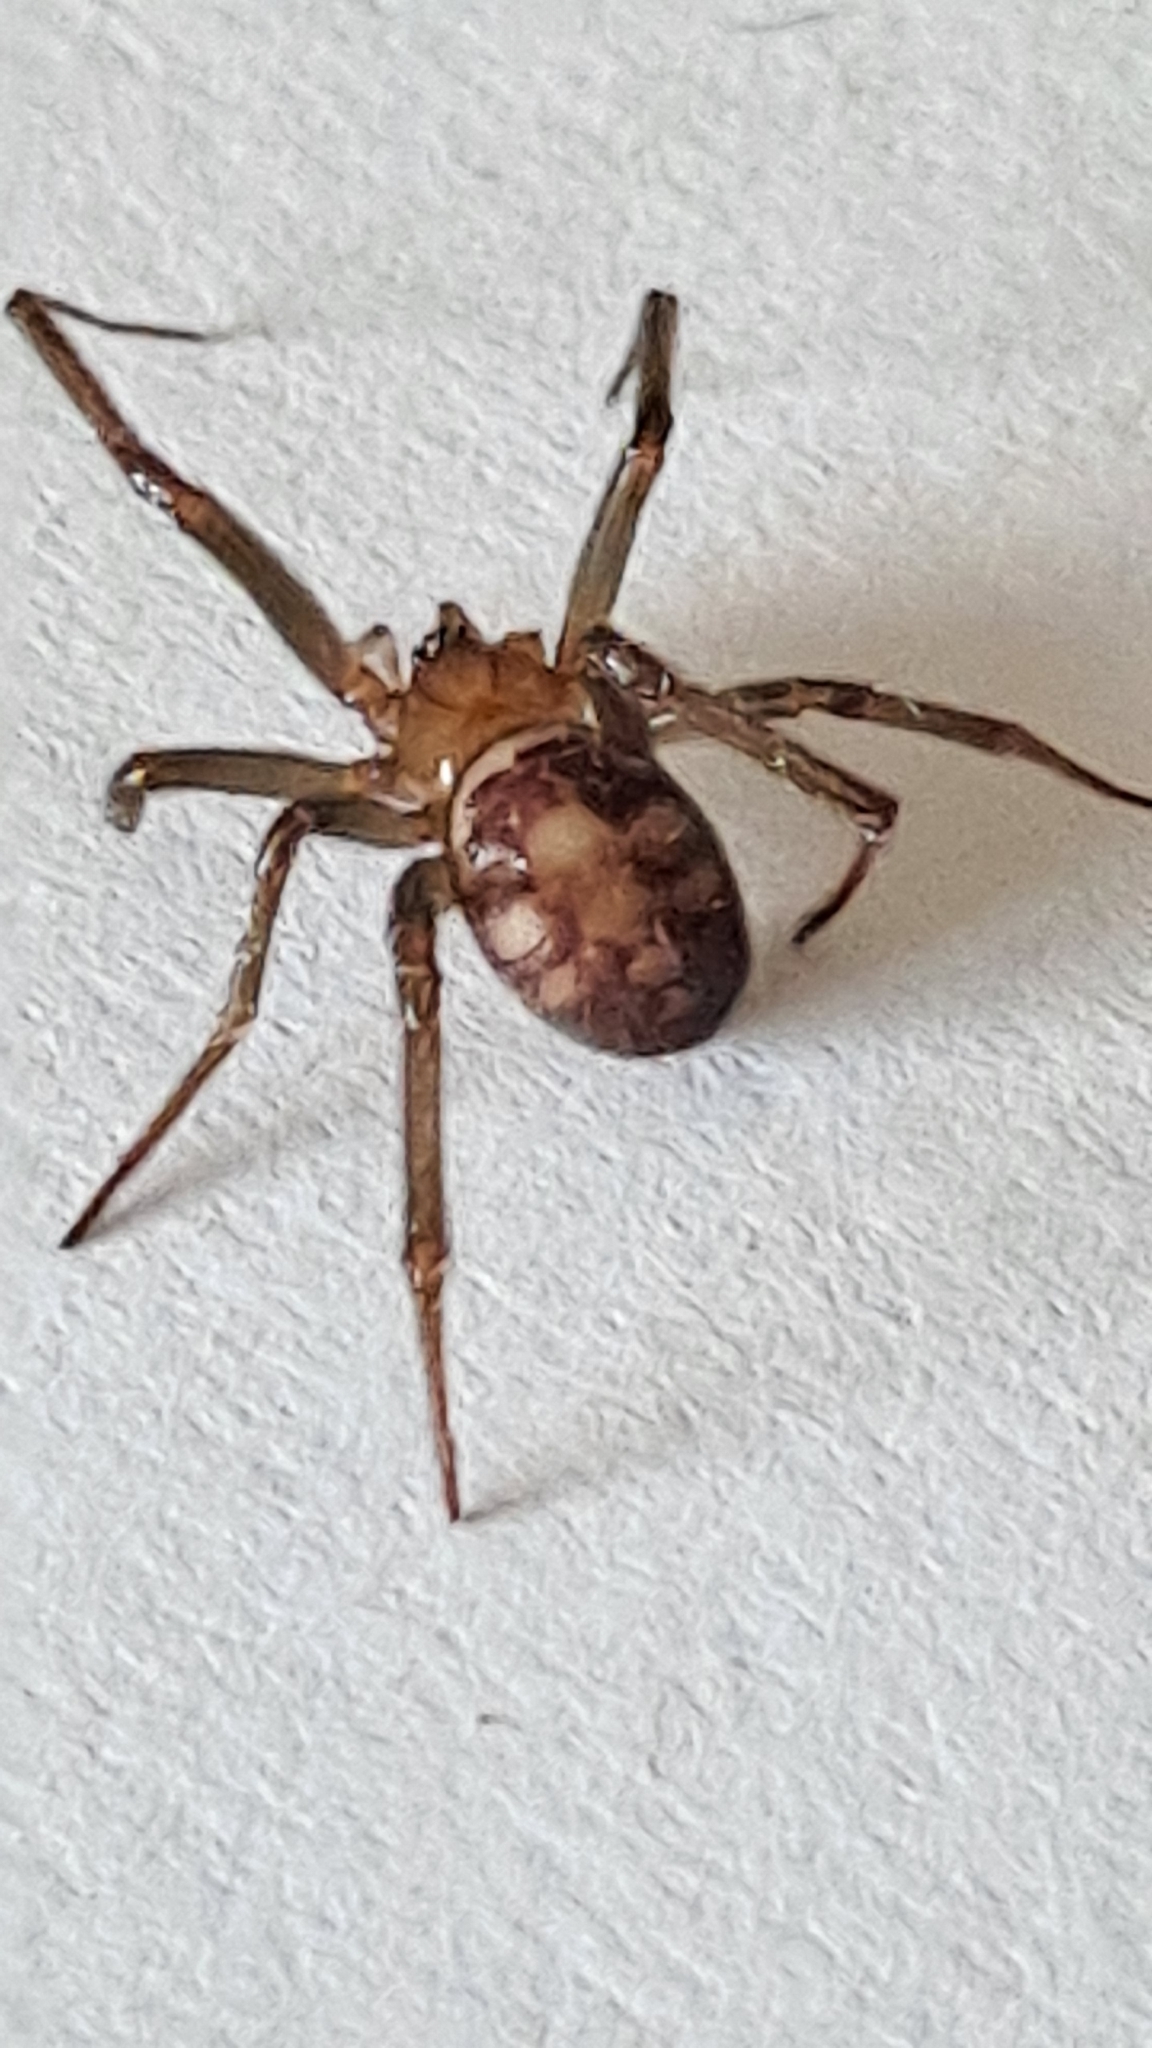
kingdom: Animalia
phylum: Arthropoda
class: Arachnida
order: Araneae
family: Theridiidae
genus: Steatoda
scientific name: Steatoda grossa
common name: False black widow
